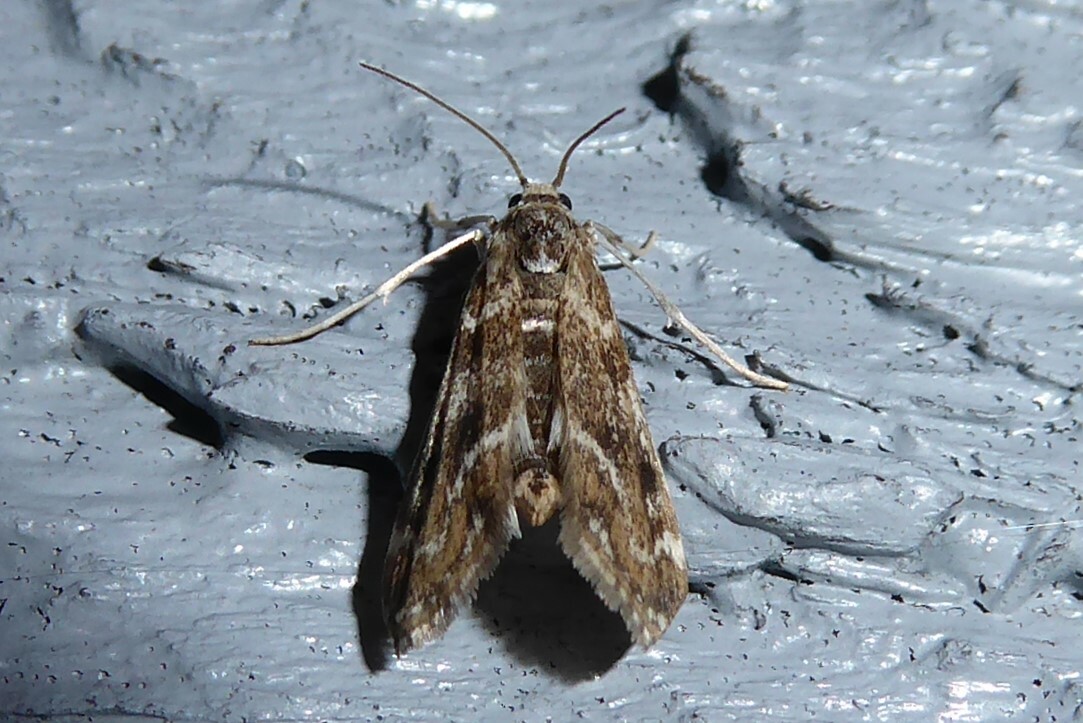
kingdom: Animalia
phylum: Arthropoda
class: Insecta
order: Lepidoptera
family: Crambidae
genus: Hygraula
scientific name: Hygraula nitens
